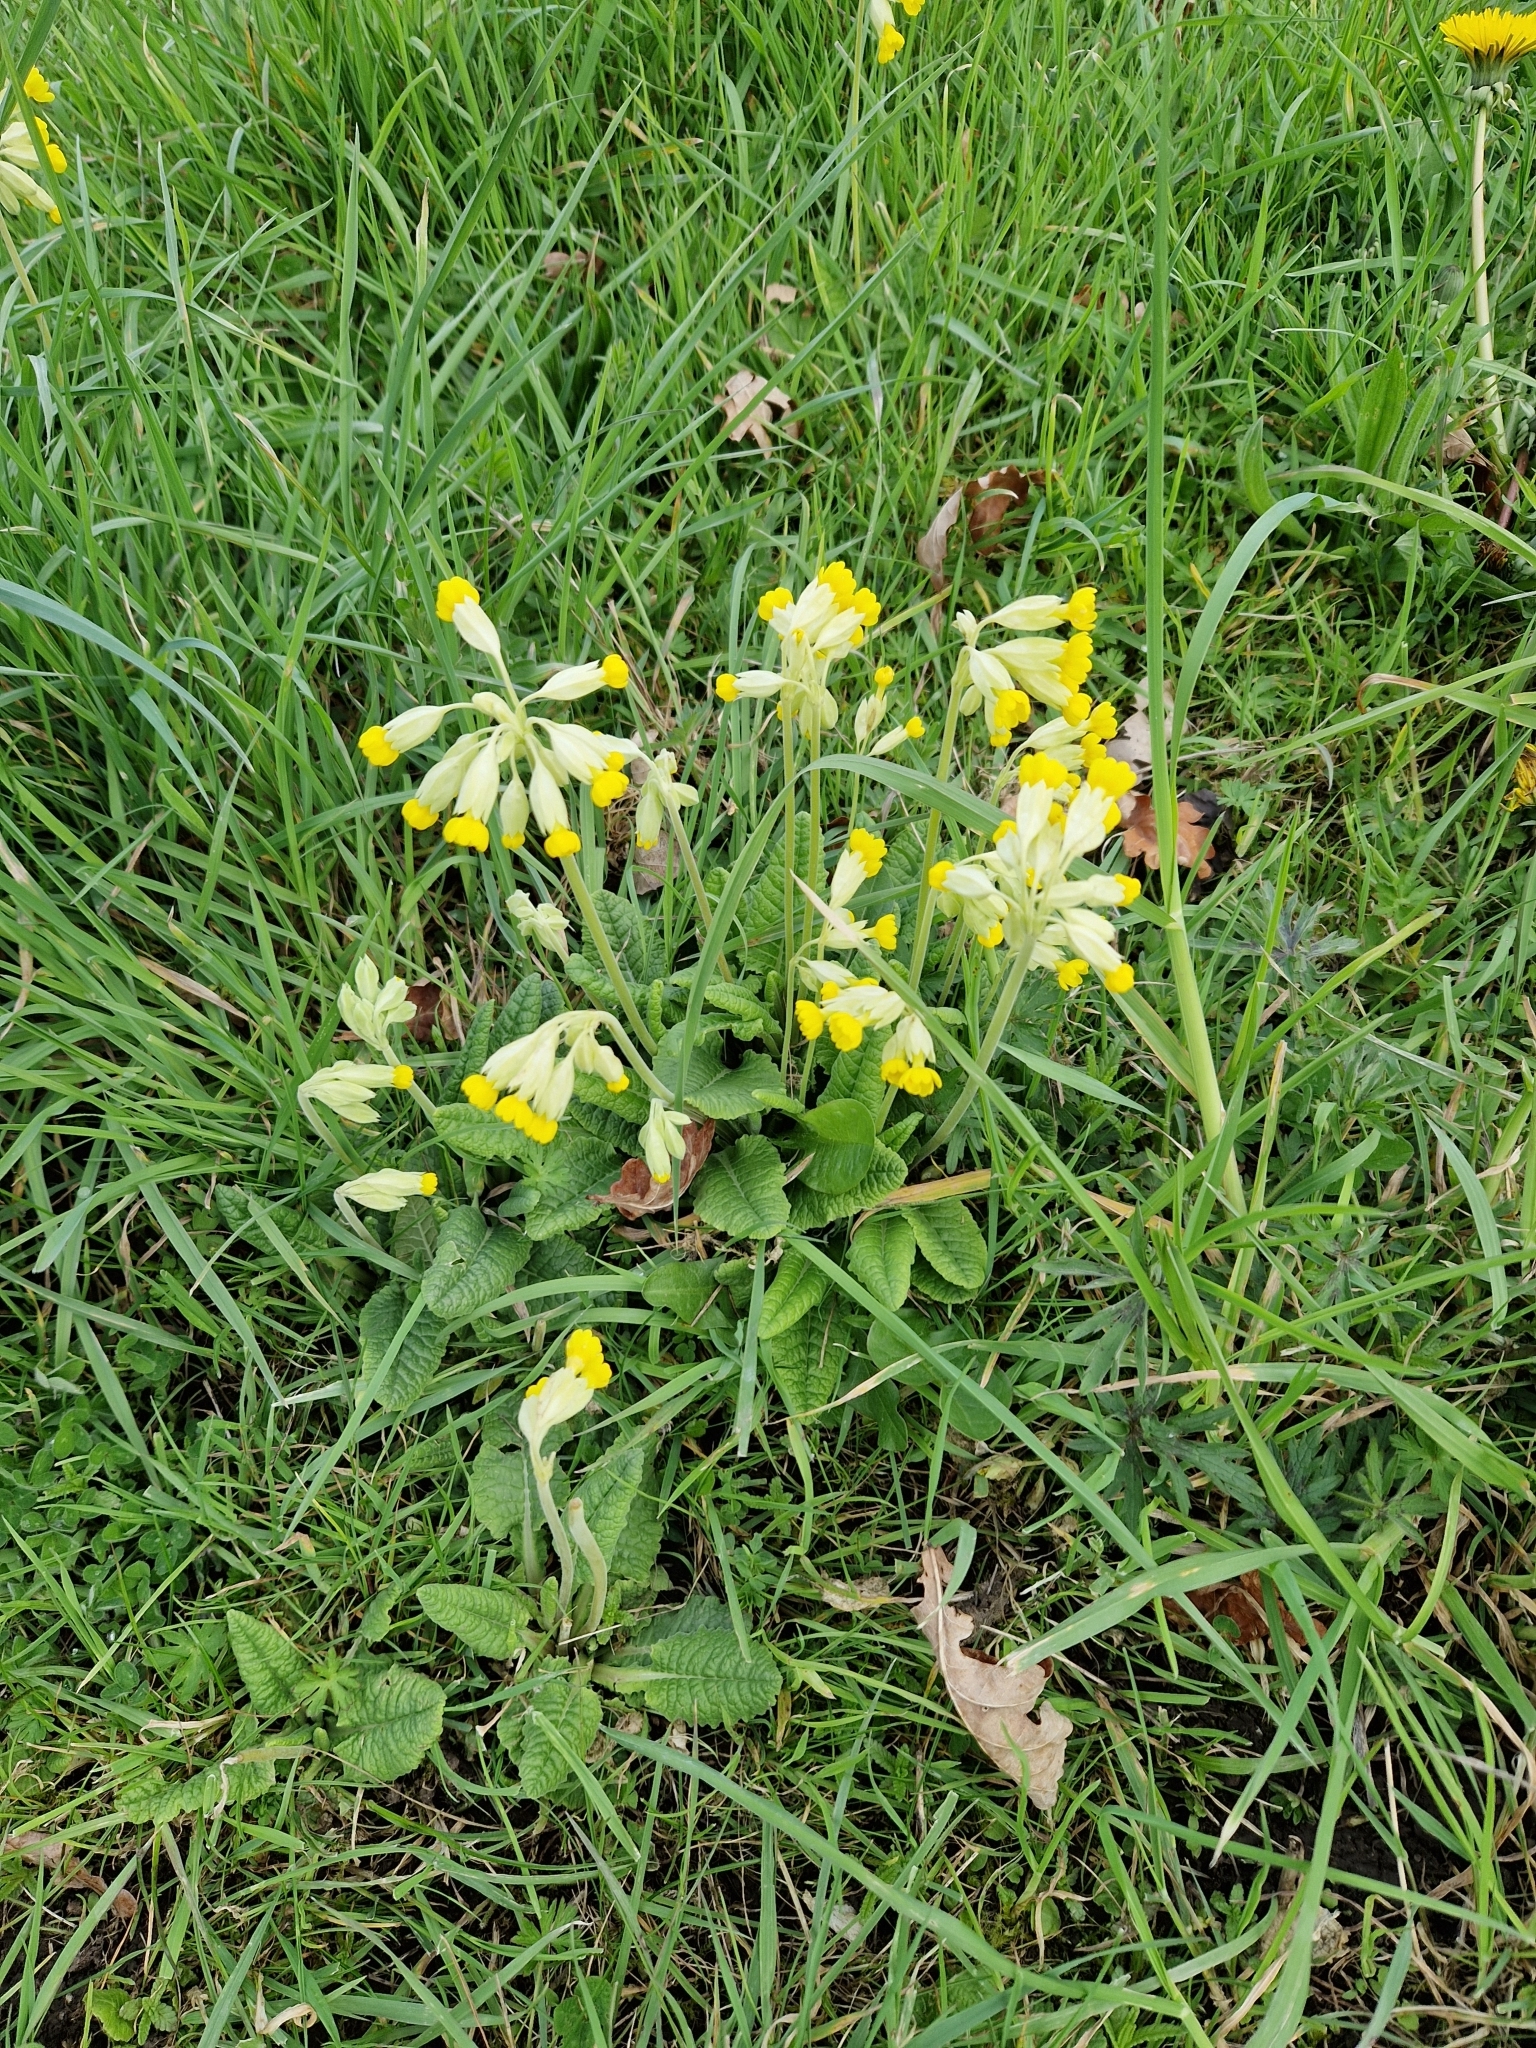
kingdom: Plantae
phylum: Tracheophyta
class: Magnoliopsida
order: Ericales
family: Primulaceae
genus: Primula
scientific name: Primula veris
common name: Cowslip
